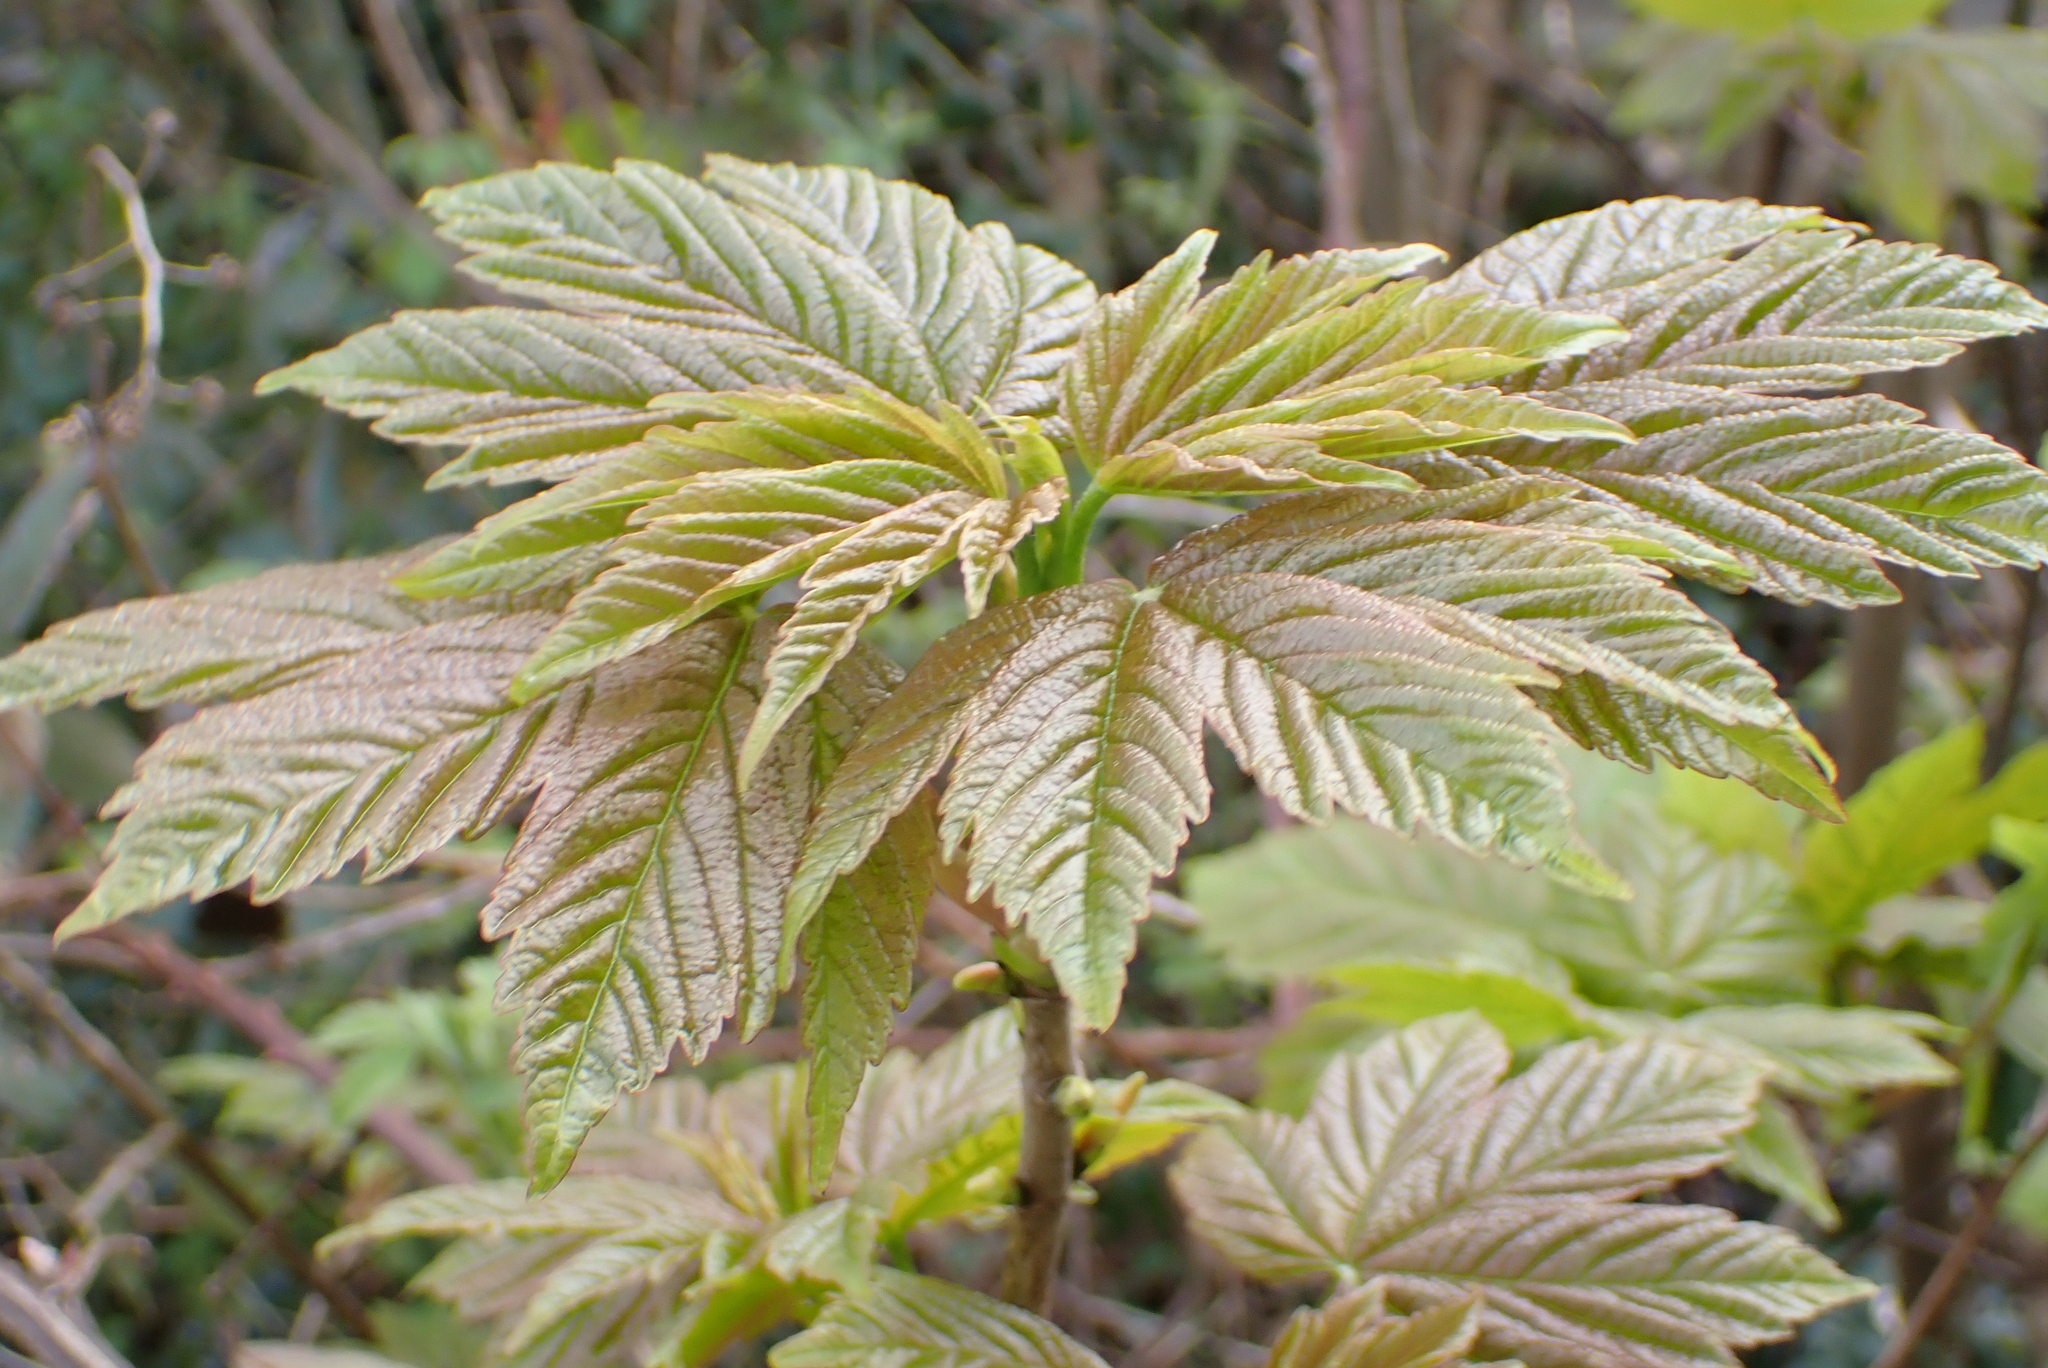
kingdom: Plantae
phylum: Tracheophyta
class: Magnoliopsida
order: Sapindales
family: Sapindaceae
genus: Acer
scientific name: Acer pseudoplatanus
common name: Sycamore
